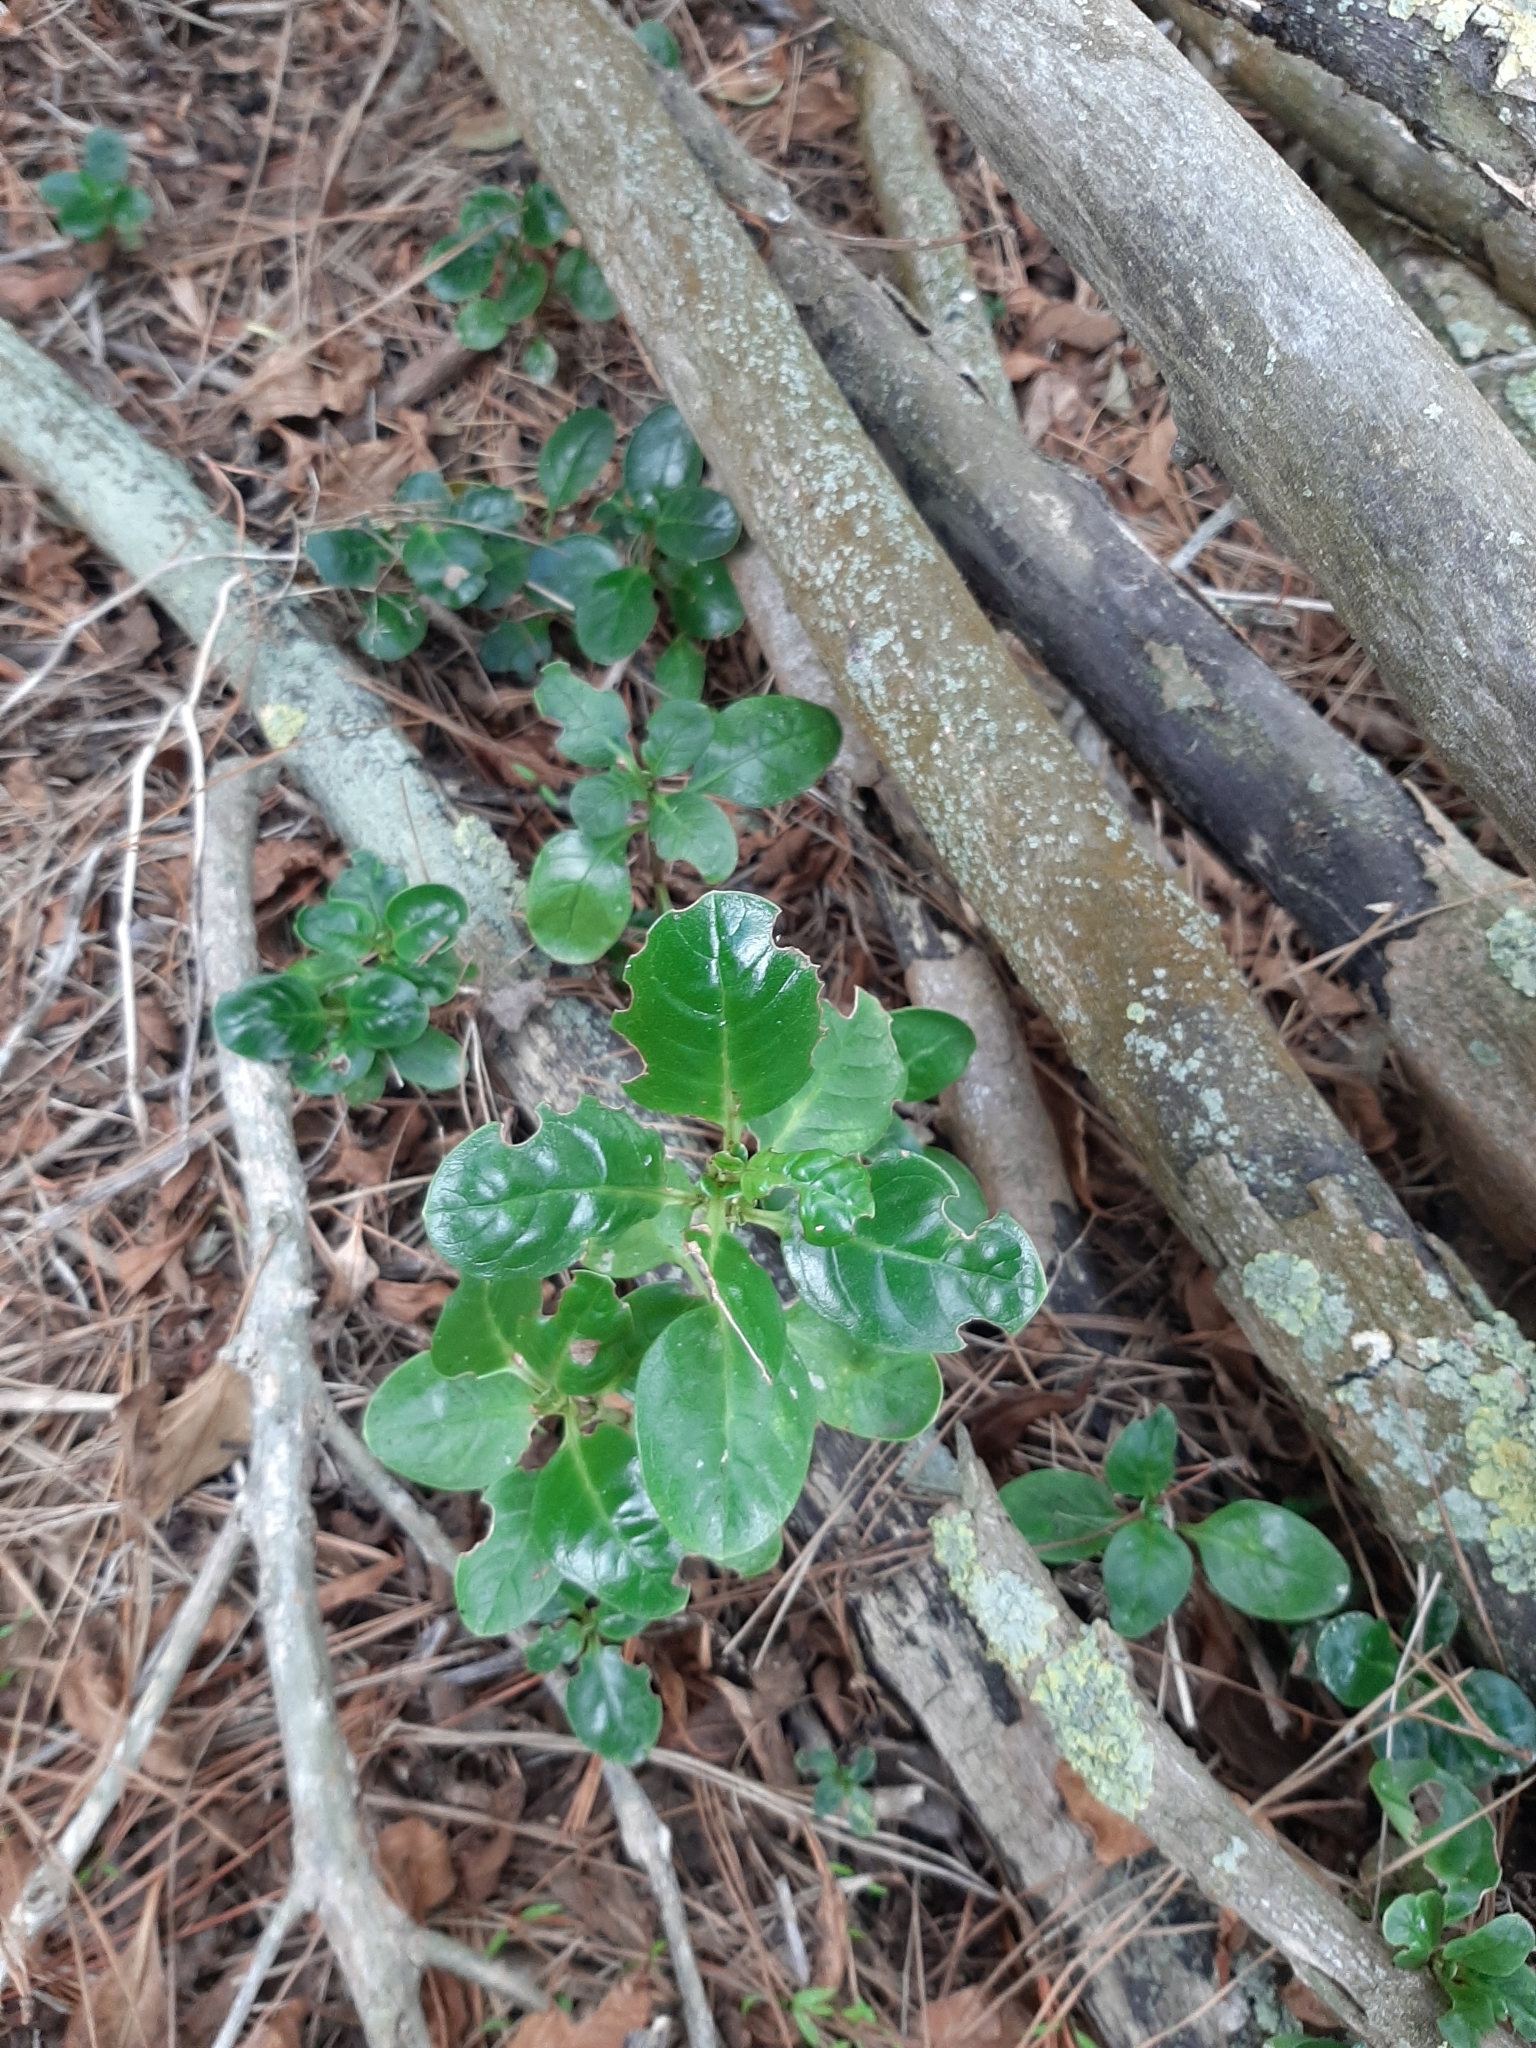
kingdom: Plantae
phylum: Tracheophyta
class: Magnoliopsida
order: Gentianales
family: Rubiaceae
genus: Coprosma
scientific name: Coprosma repens
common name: Tree bedstraw
